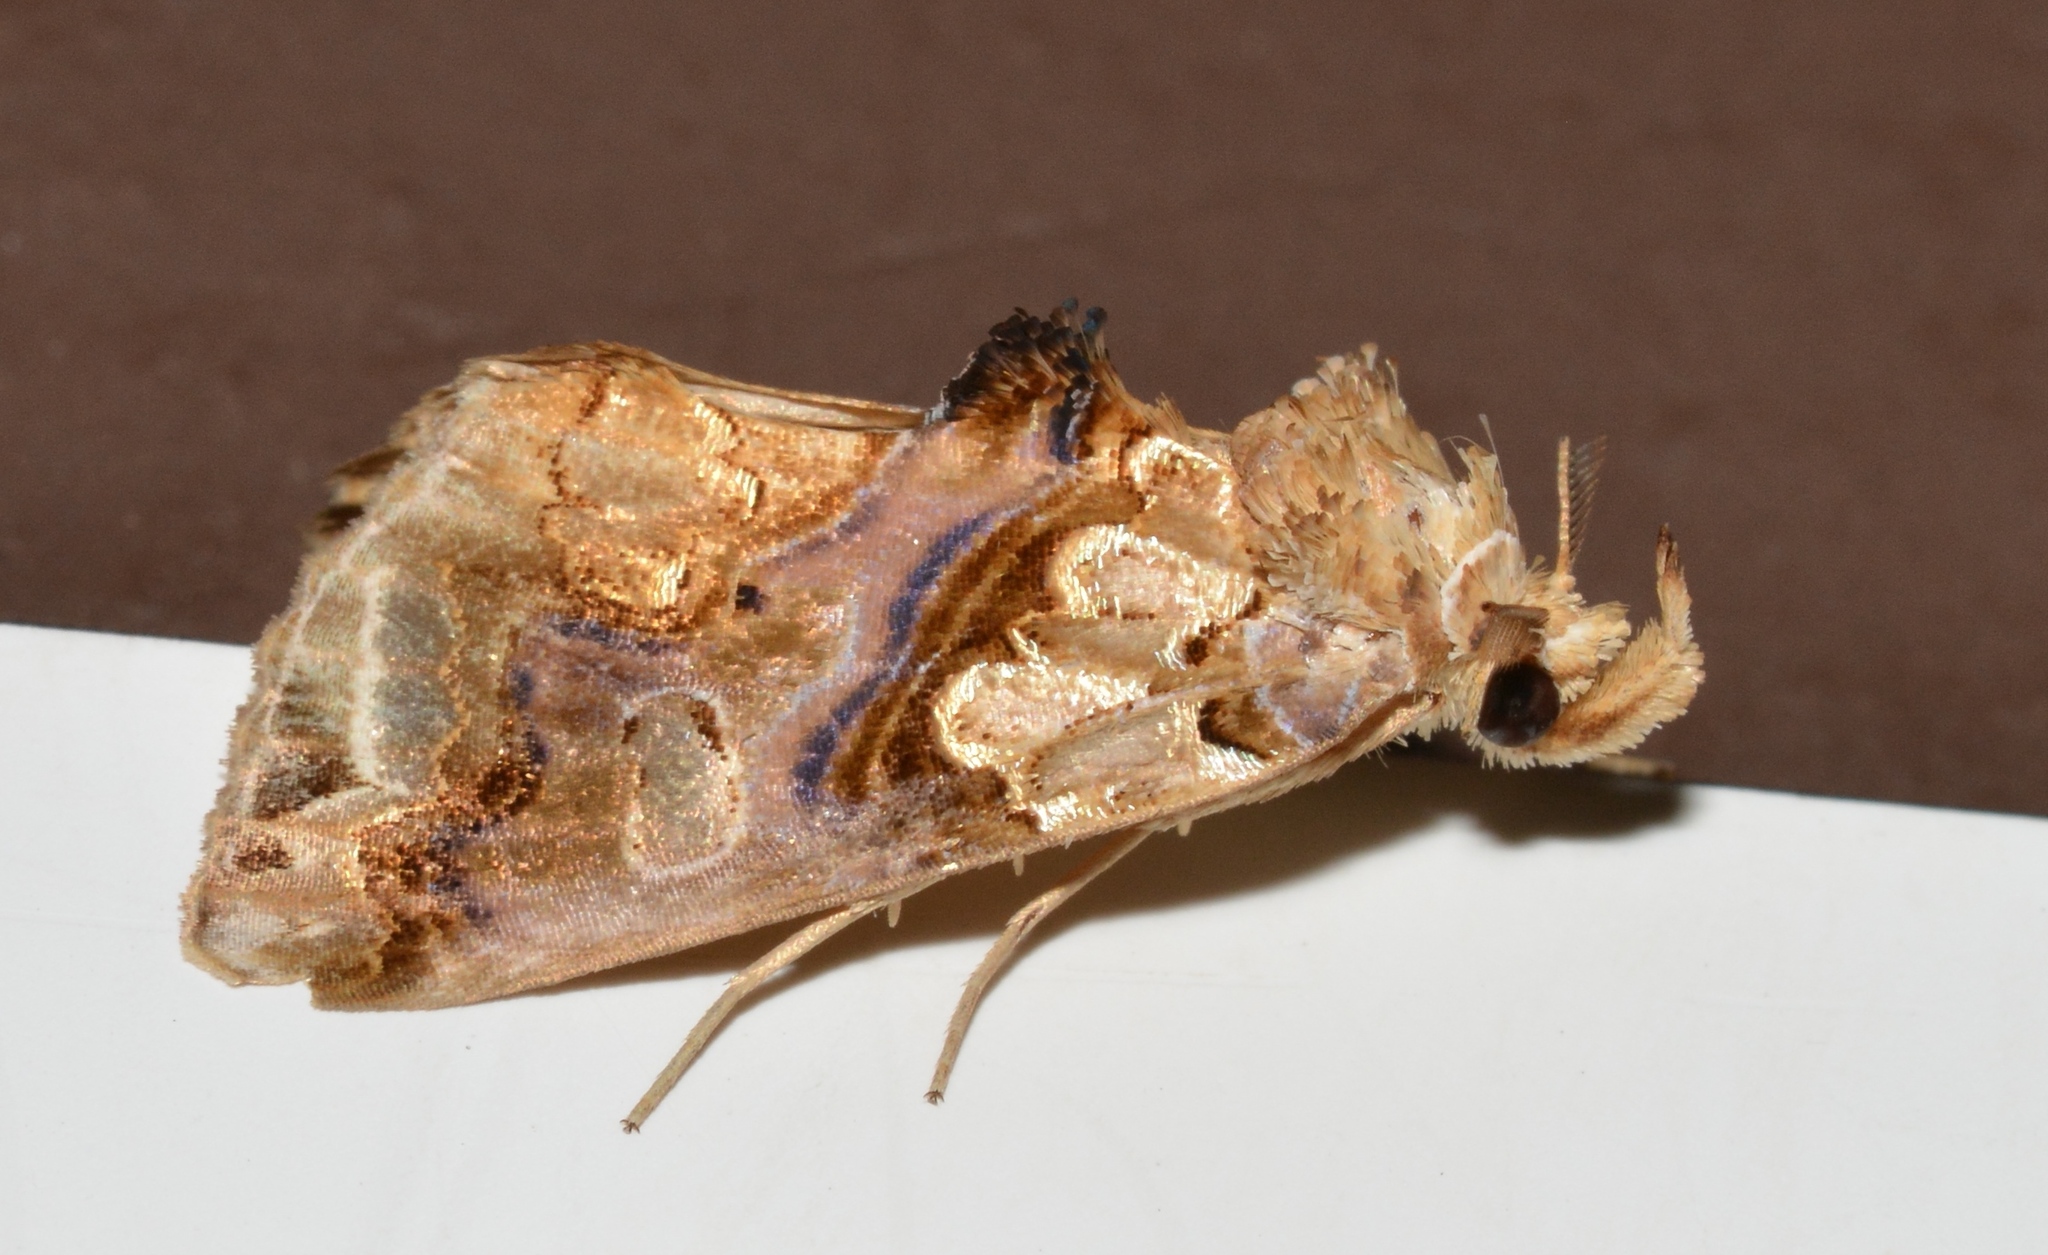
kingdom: Animalia
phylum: Arthropoda
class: Insecta
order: Lepidoptera
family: Erebidae
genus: Plusiodonta
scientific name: Plusiodonta compressipalpis
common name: Moonseed moth
